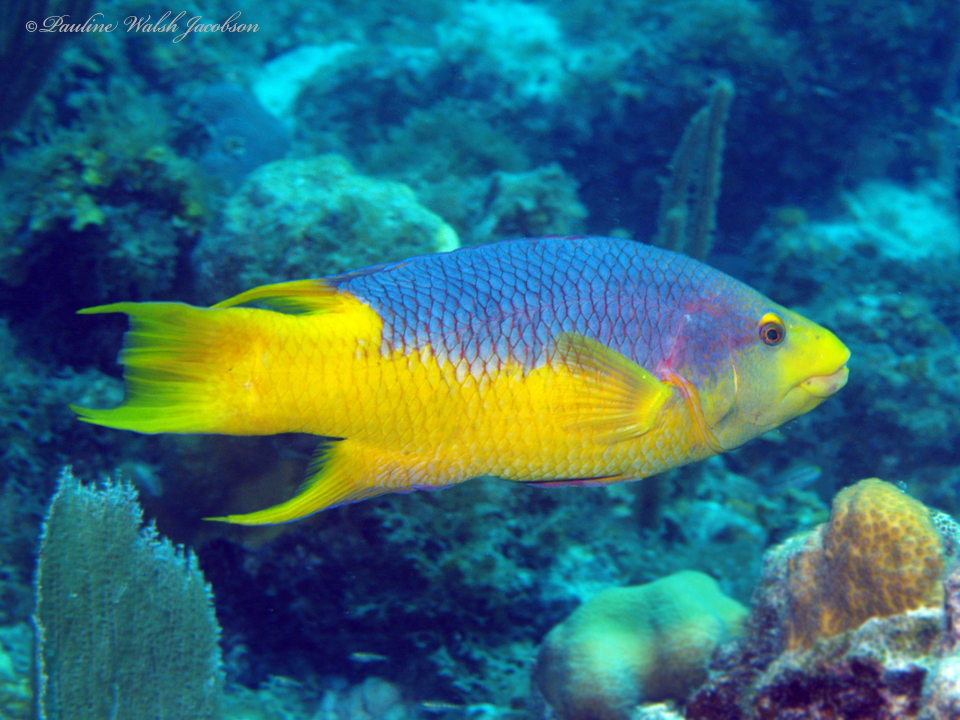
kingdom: Animalia
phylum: Chordata
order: Perciformes
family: Labridae
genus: Bodianus
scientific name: Bodianus rufus
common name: Spanish hogfish
